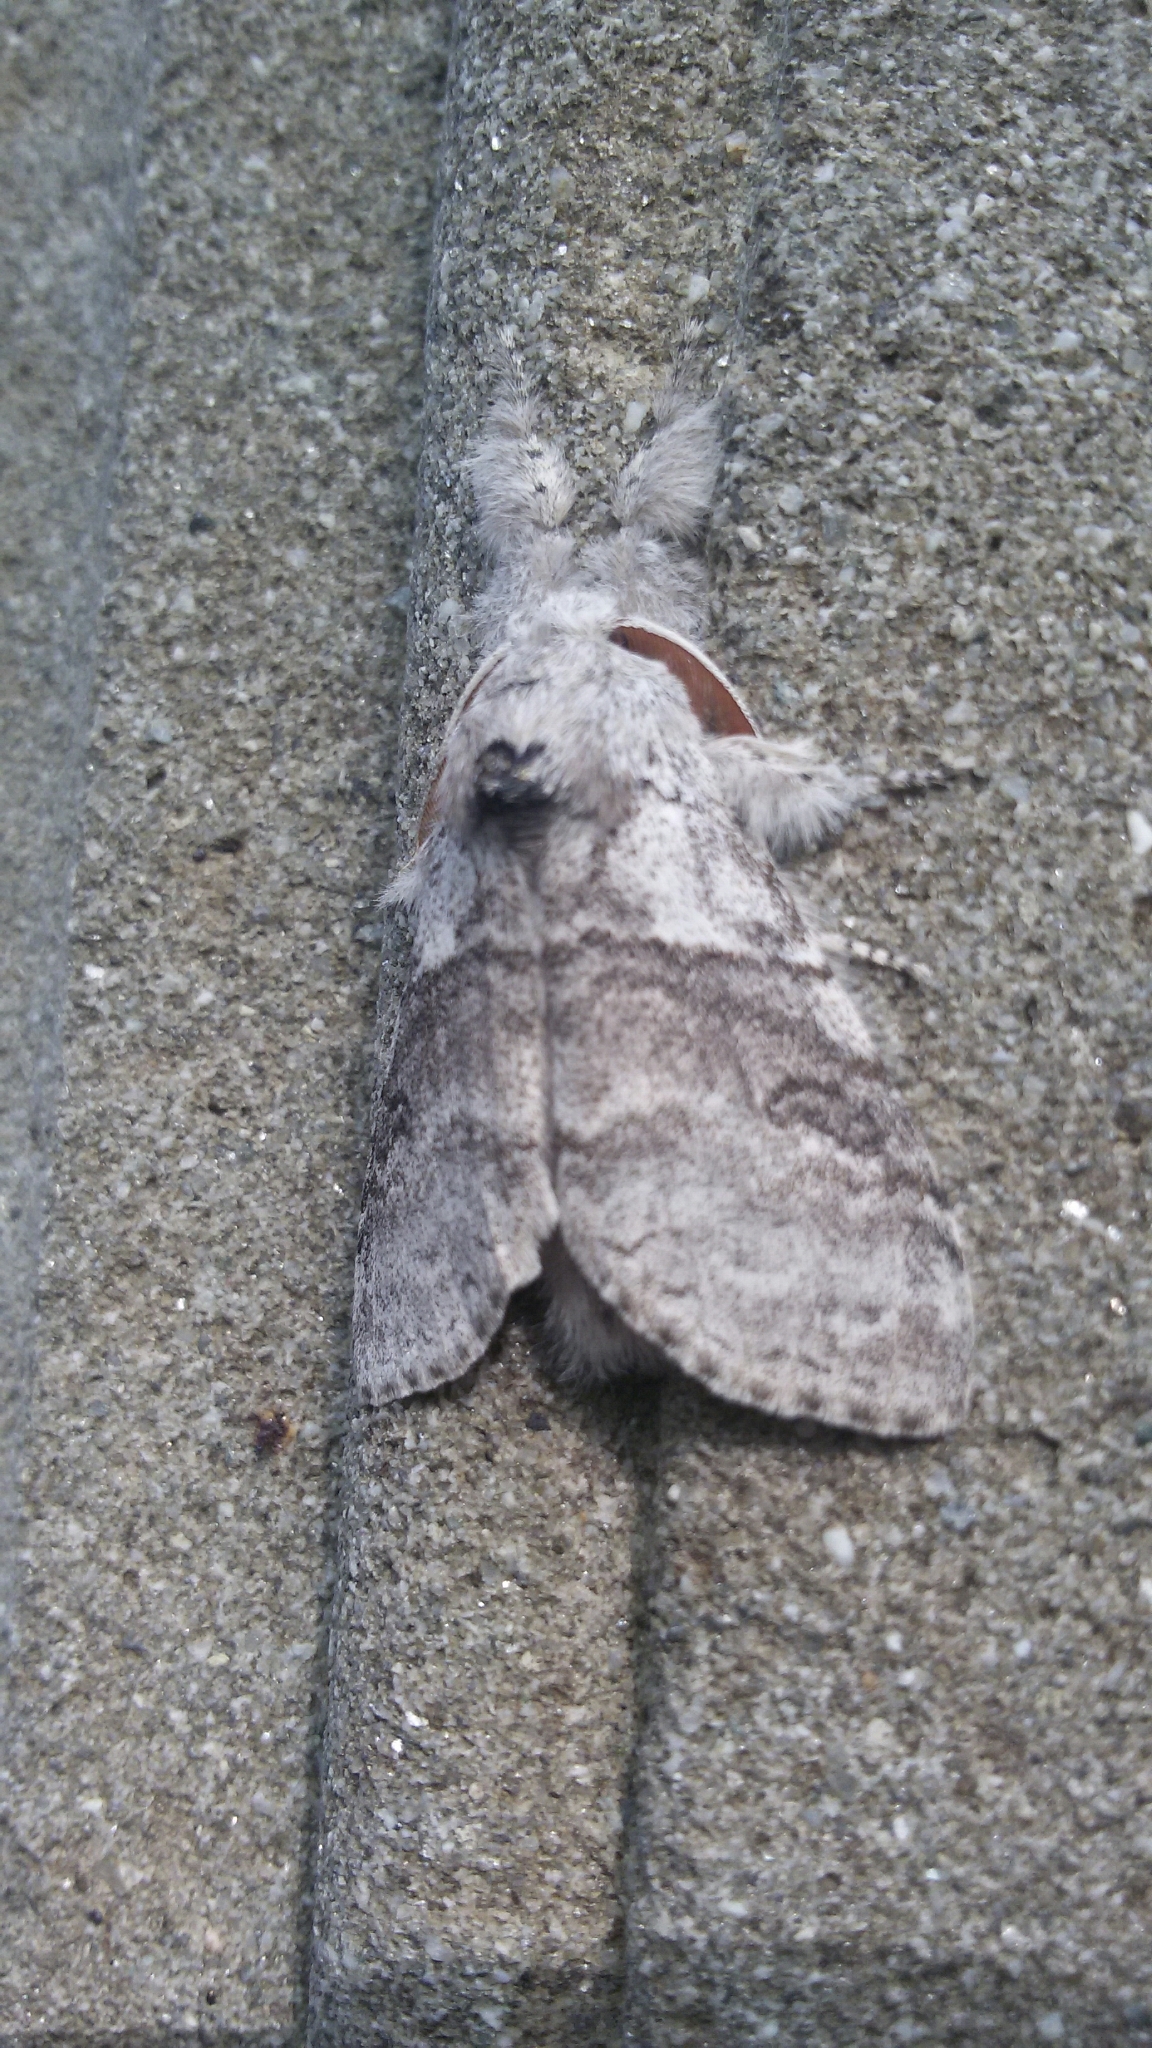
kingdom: Animalia
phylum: Arthropoda
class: Insecta
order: Lepidoptera
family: Erebidae
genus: Calliteara
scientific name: Calliteara pudibunda
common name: Pale tussock
